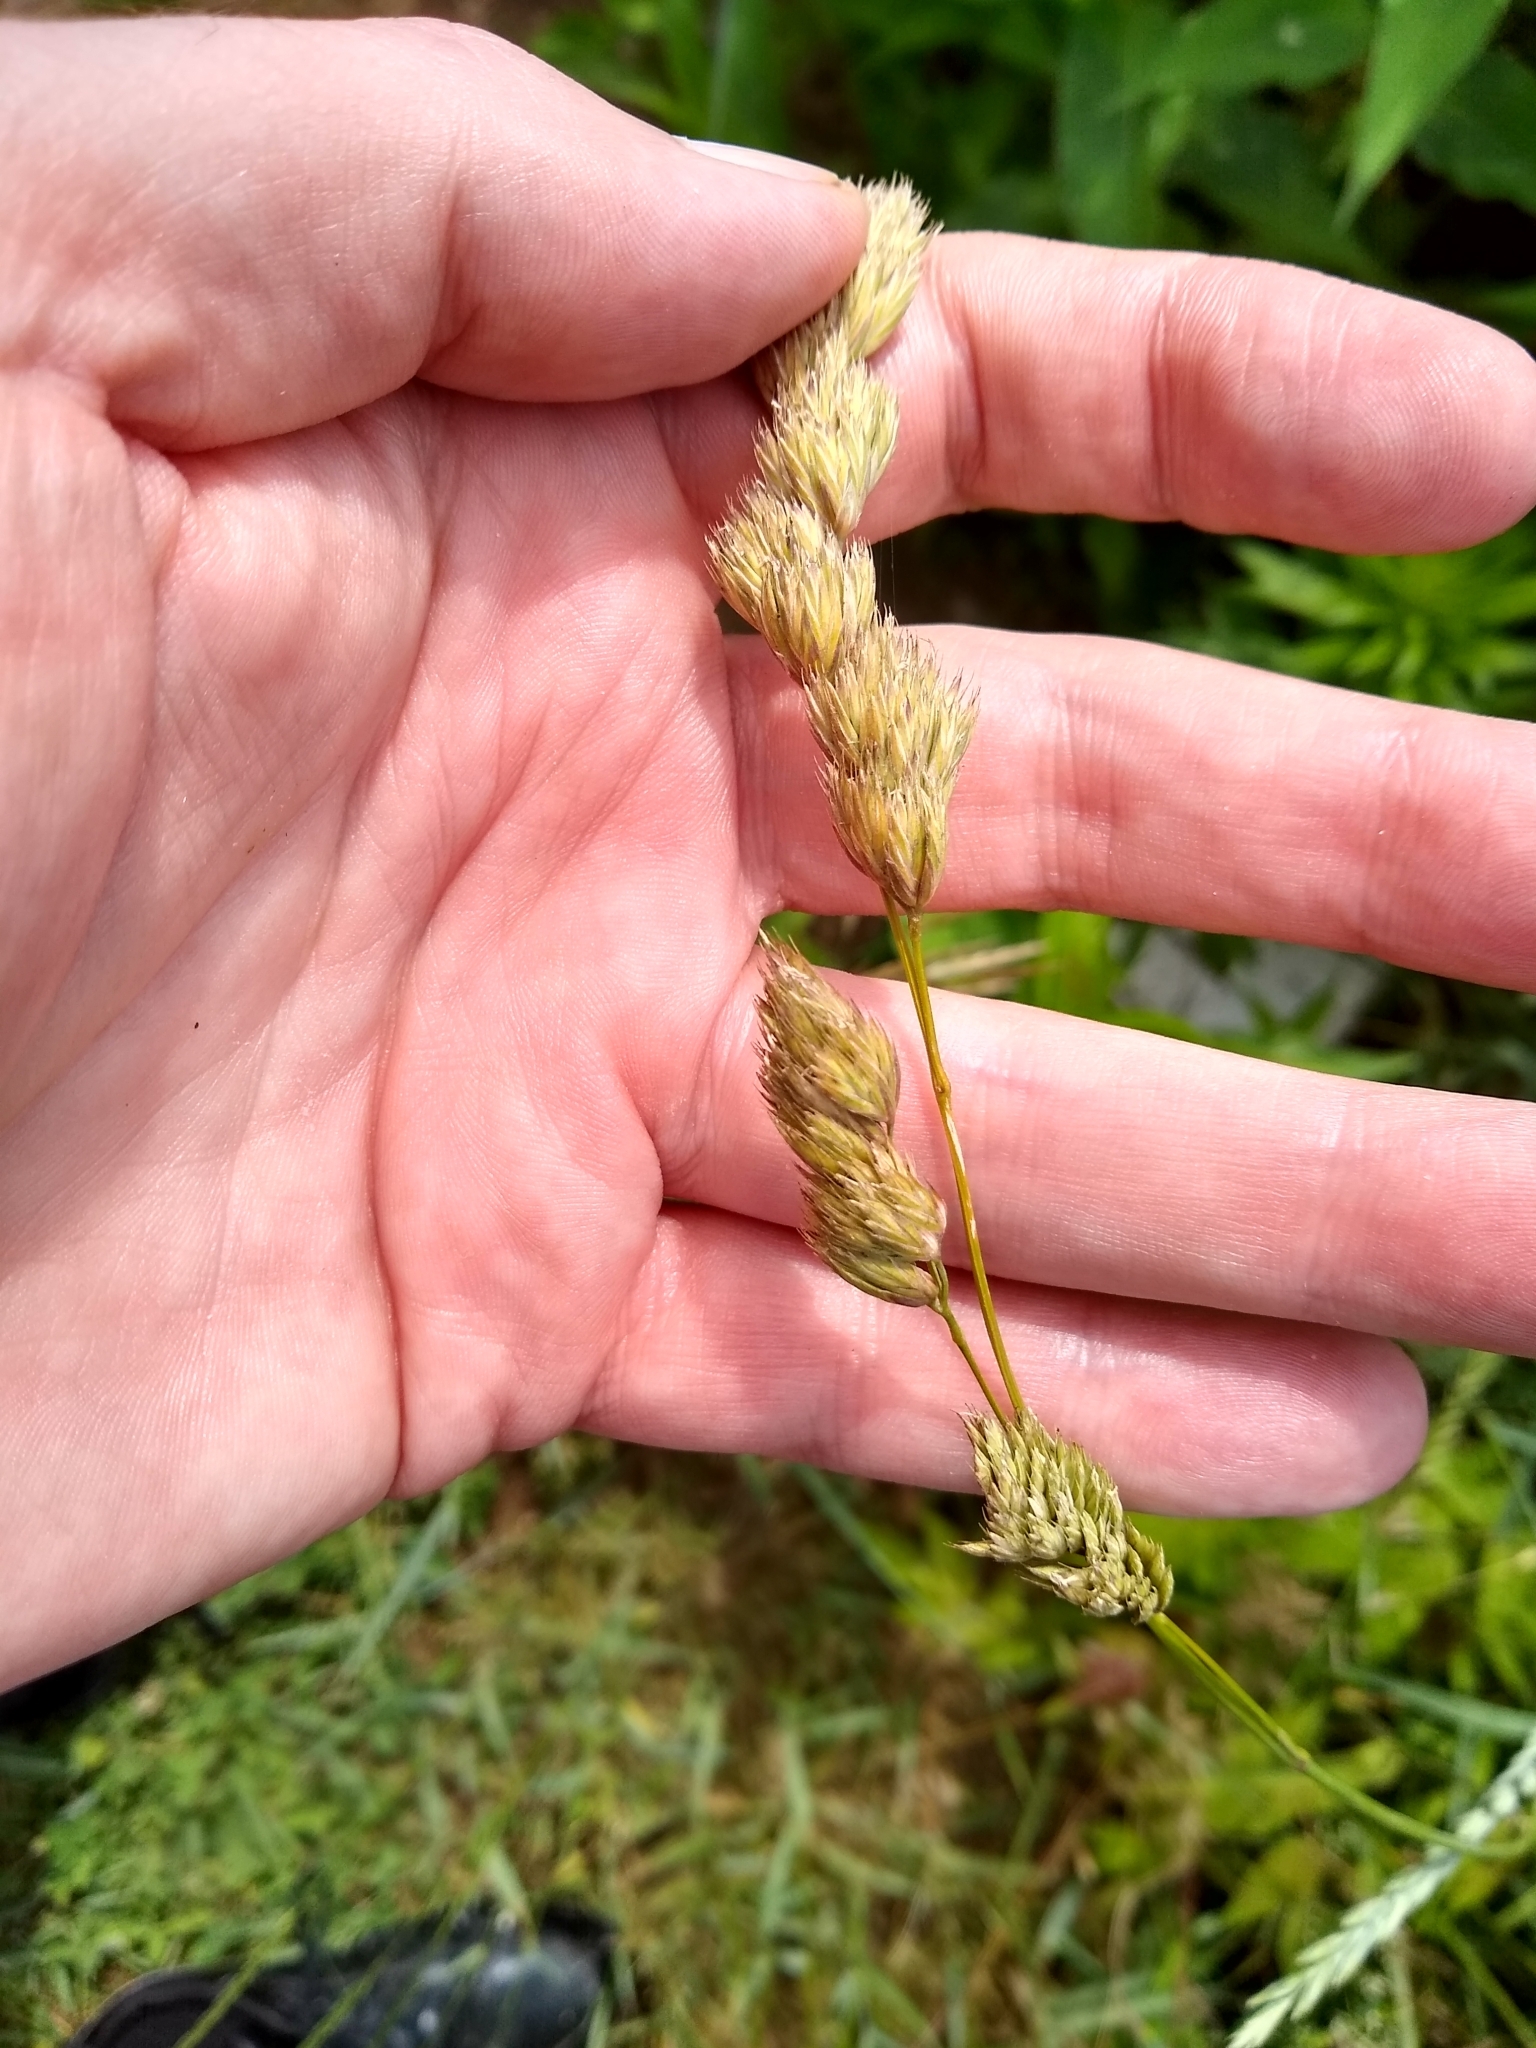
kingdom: Plantae
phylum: Tracheophyta
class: Liliopsida
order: Poales
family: Poaceae
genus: Dactylis
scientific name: Dactylis glomerata
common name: Orchardgrass
